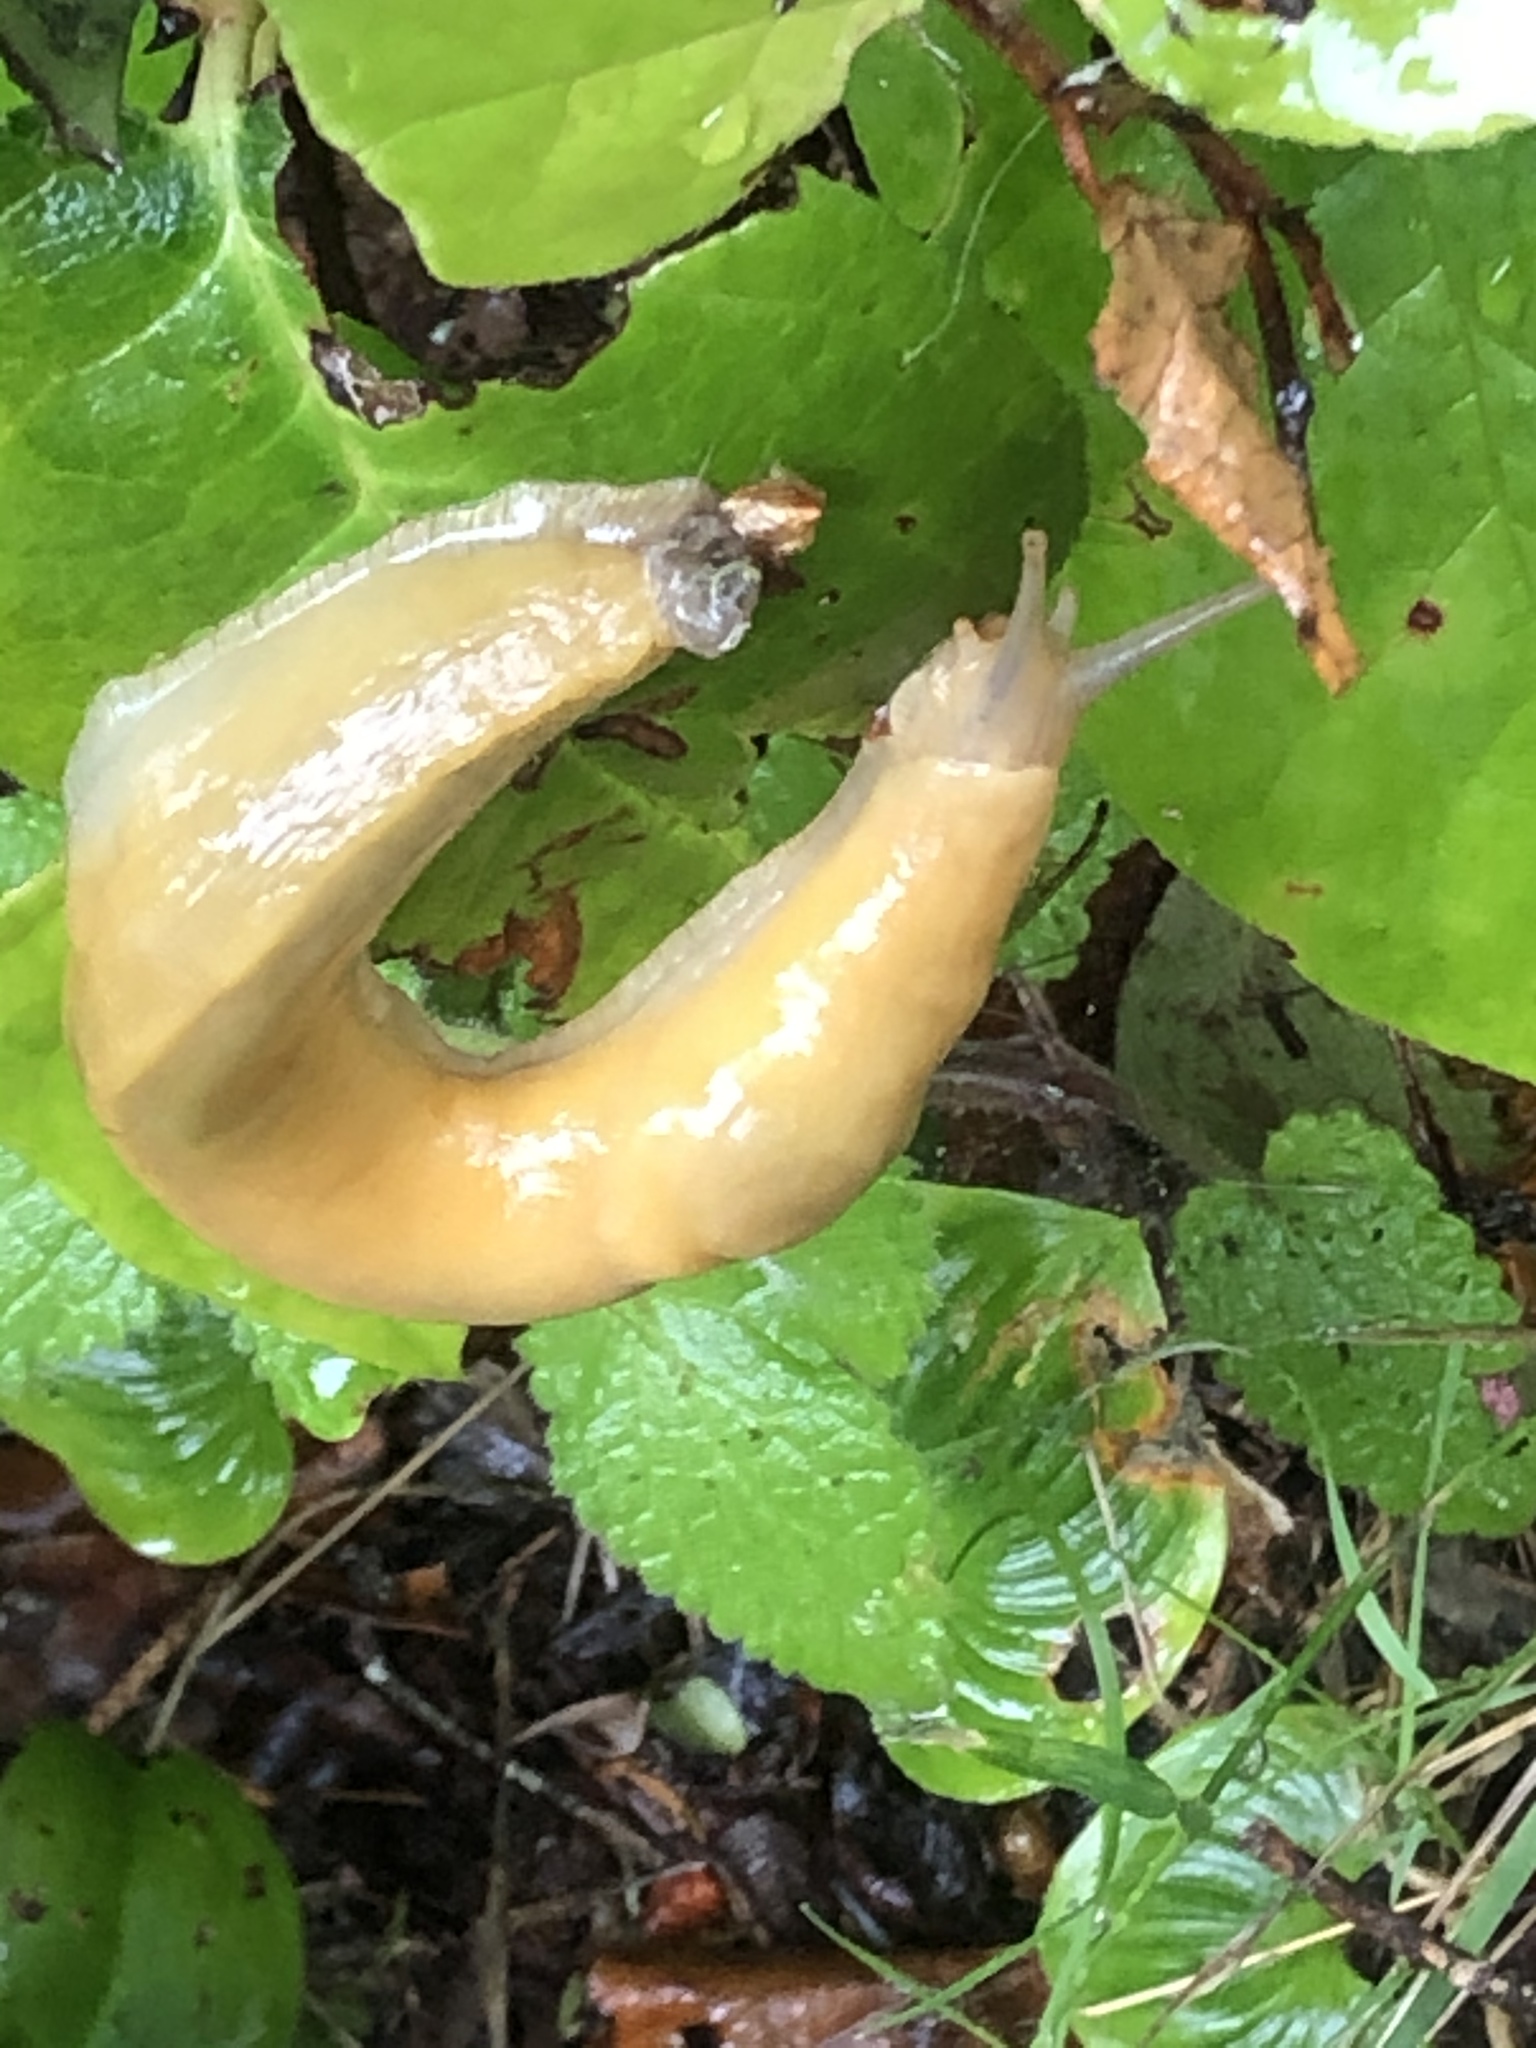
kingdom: Animalia
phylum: Mollusca
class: Gastropoda
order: Stylommatophora
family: Ariolimacidae
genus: Ariolimax
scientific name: Ariolimax columbianus
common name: Pacific banana slug
